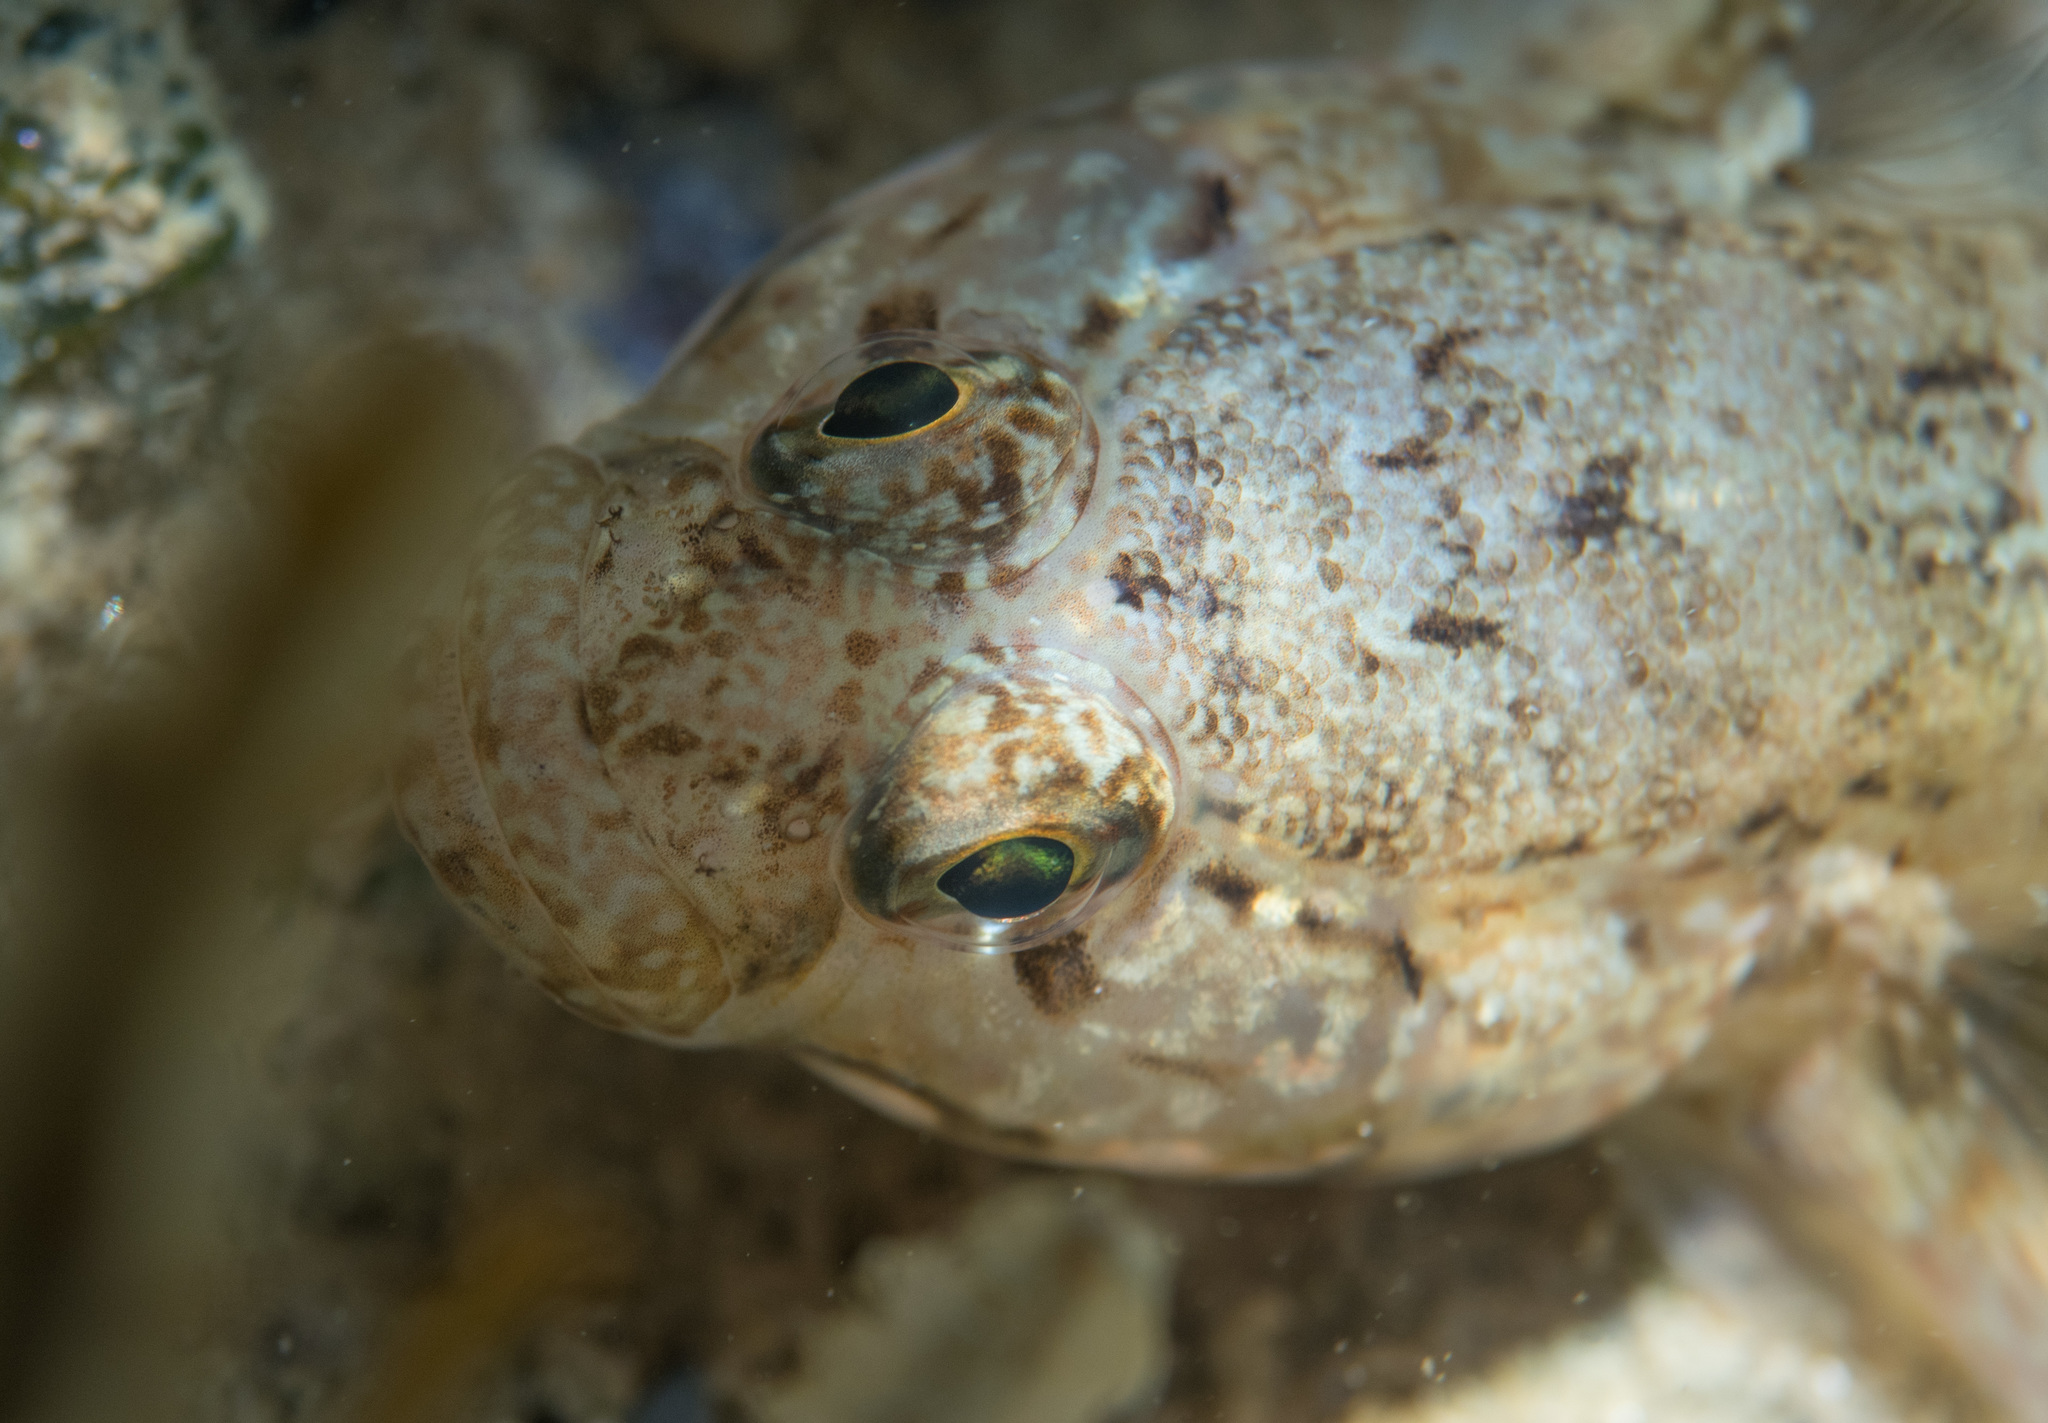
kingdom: Animalia
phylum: Chordata
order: Perciformes
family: Gobiidae
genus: Gobius
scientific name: Gobius paganellus
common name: Rock goby
